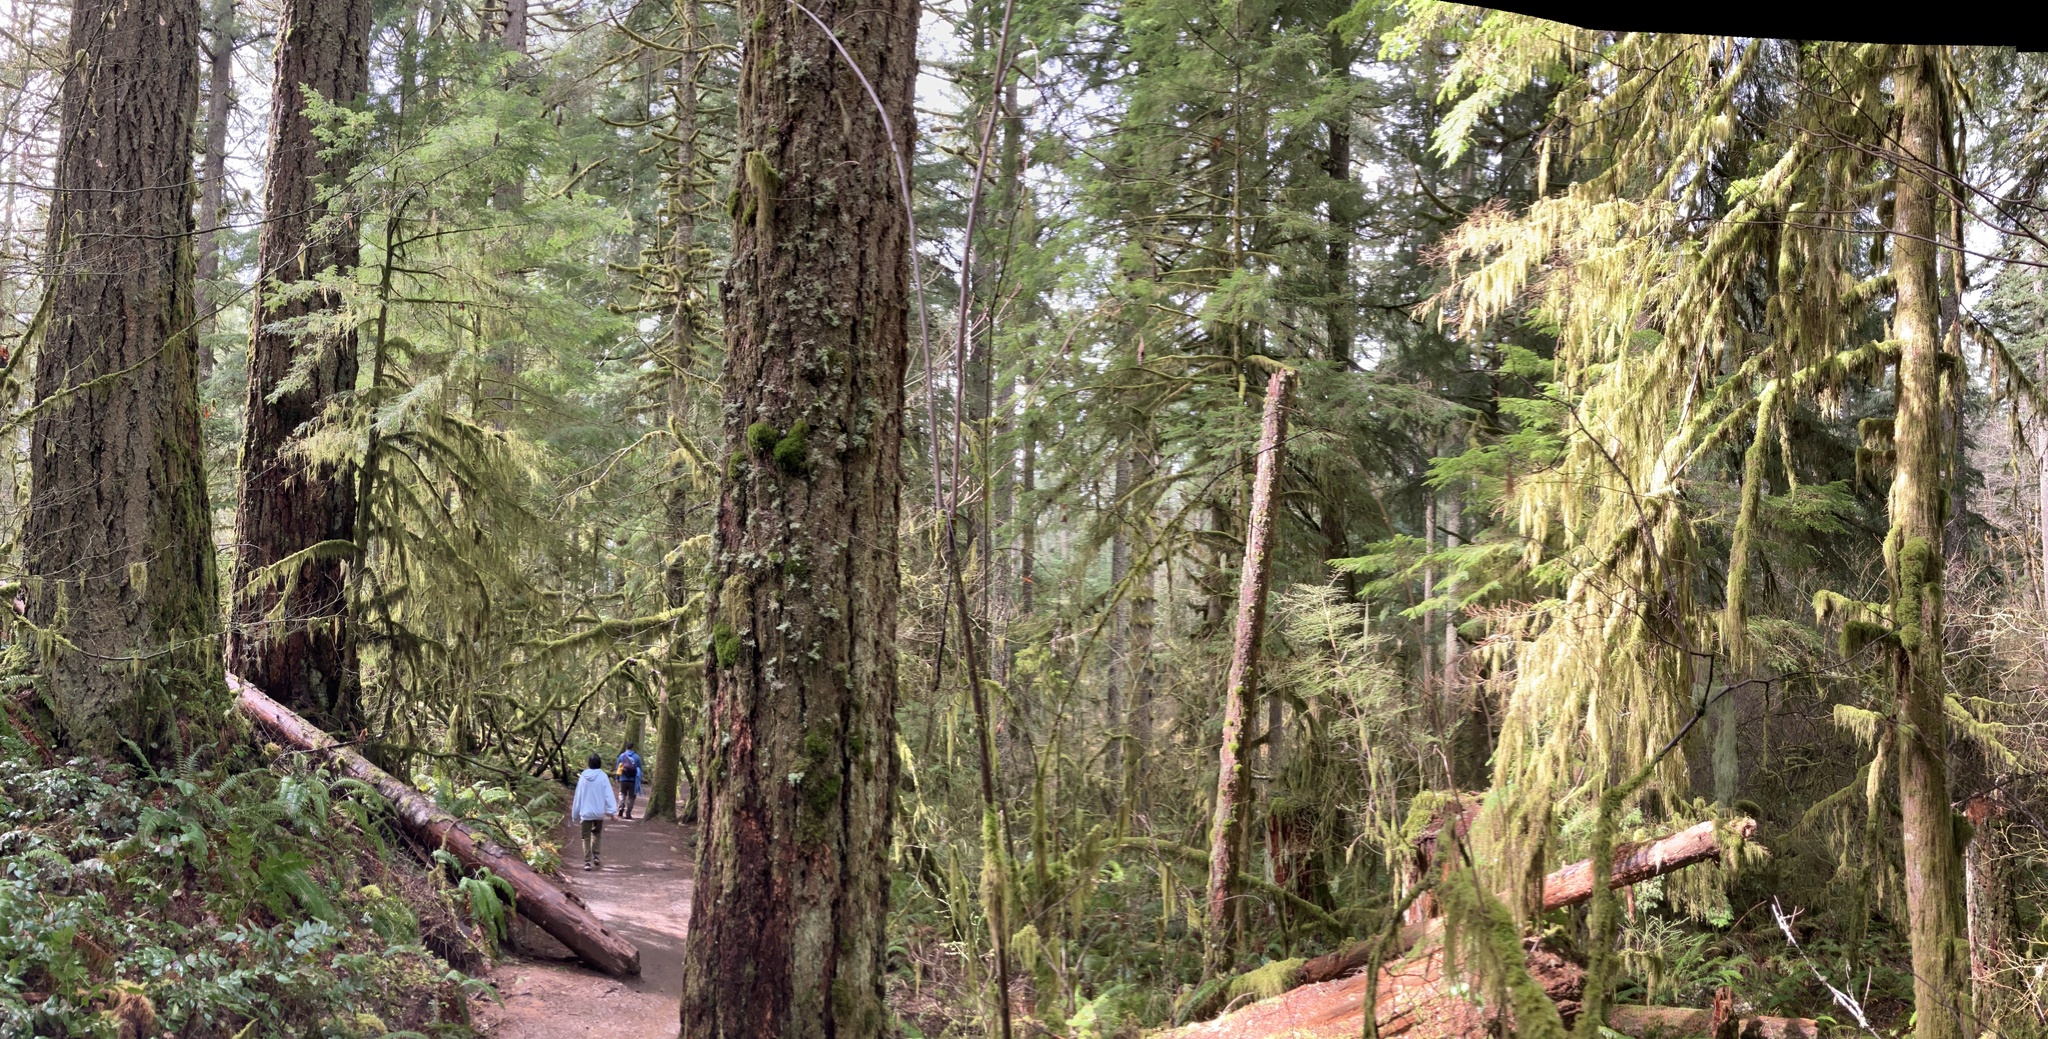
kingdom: Plantae
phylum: Tracheophyta
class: Pinopsida
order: Pinales
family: Pinaceae
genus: Pseudotsuga
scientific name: Pseudotsuga menziesii
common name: Douglas fir
